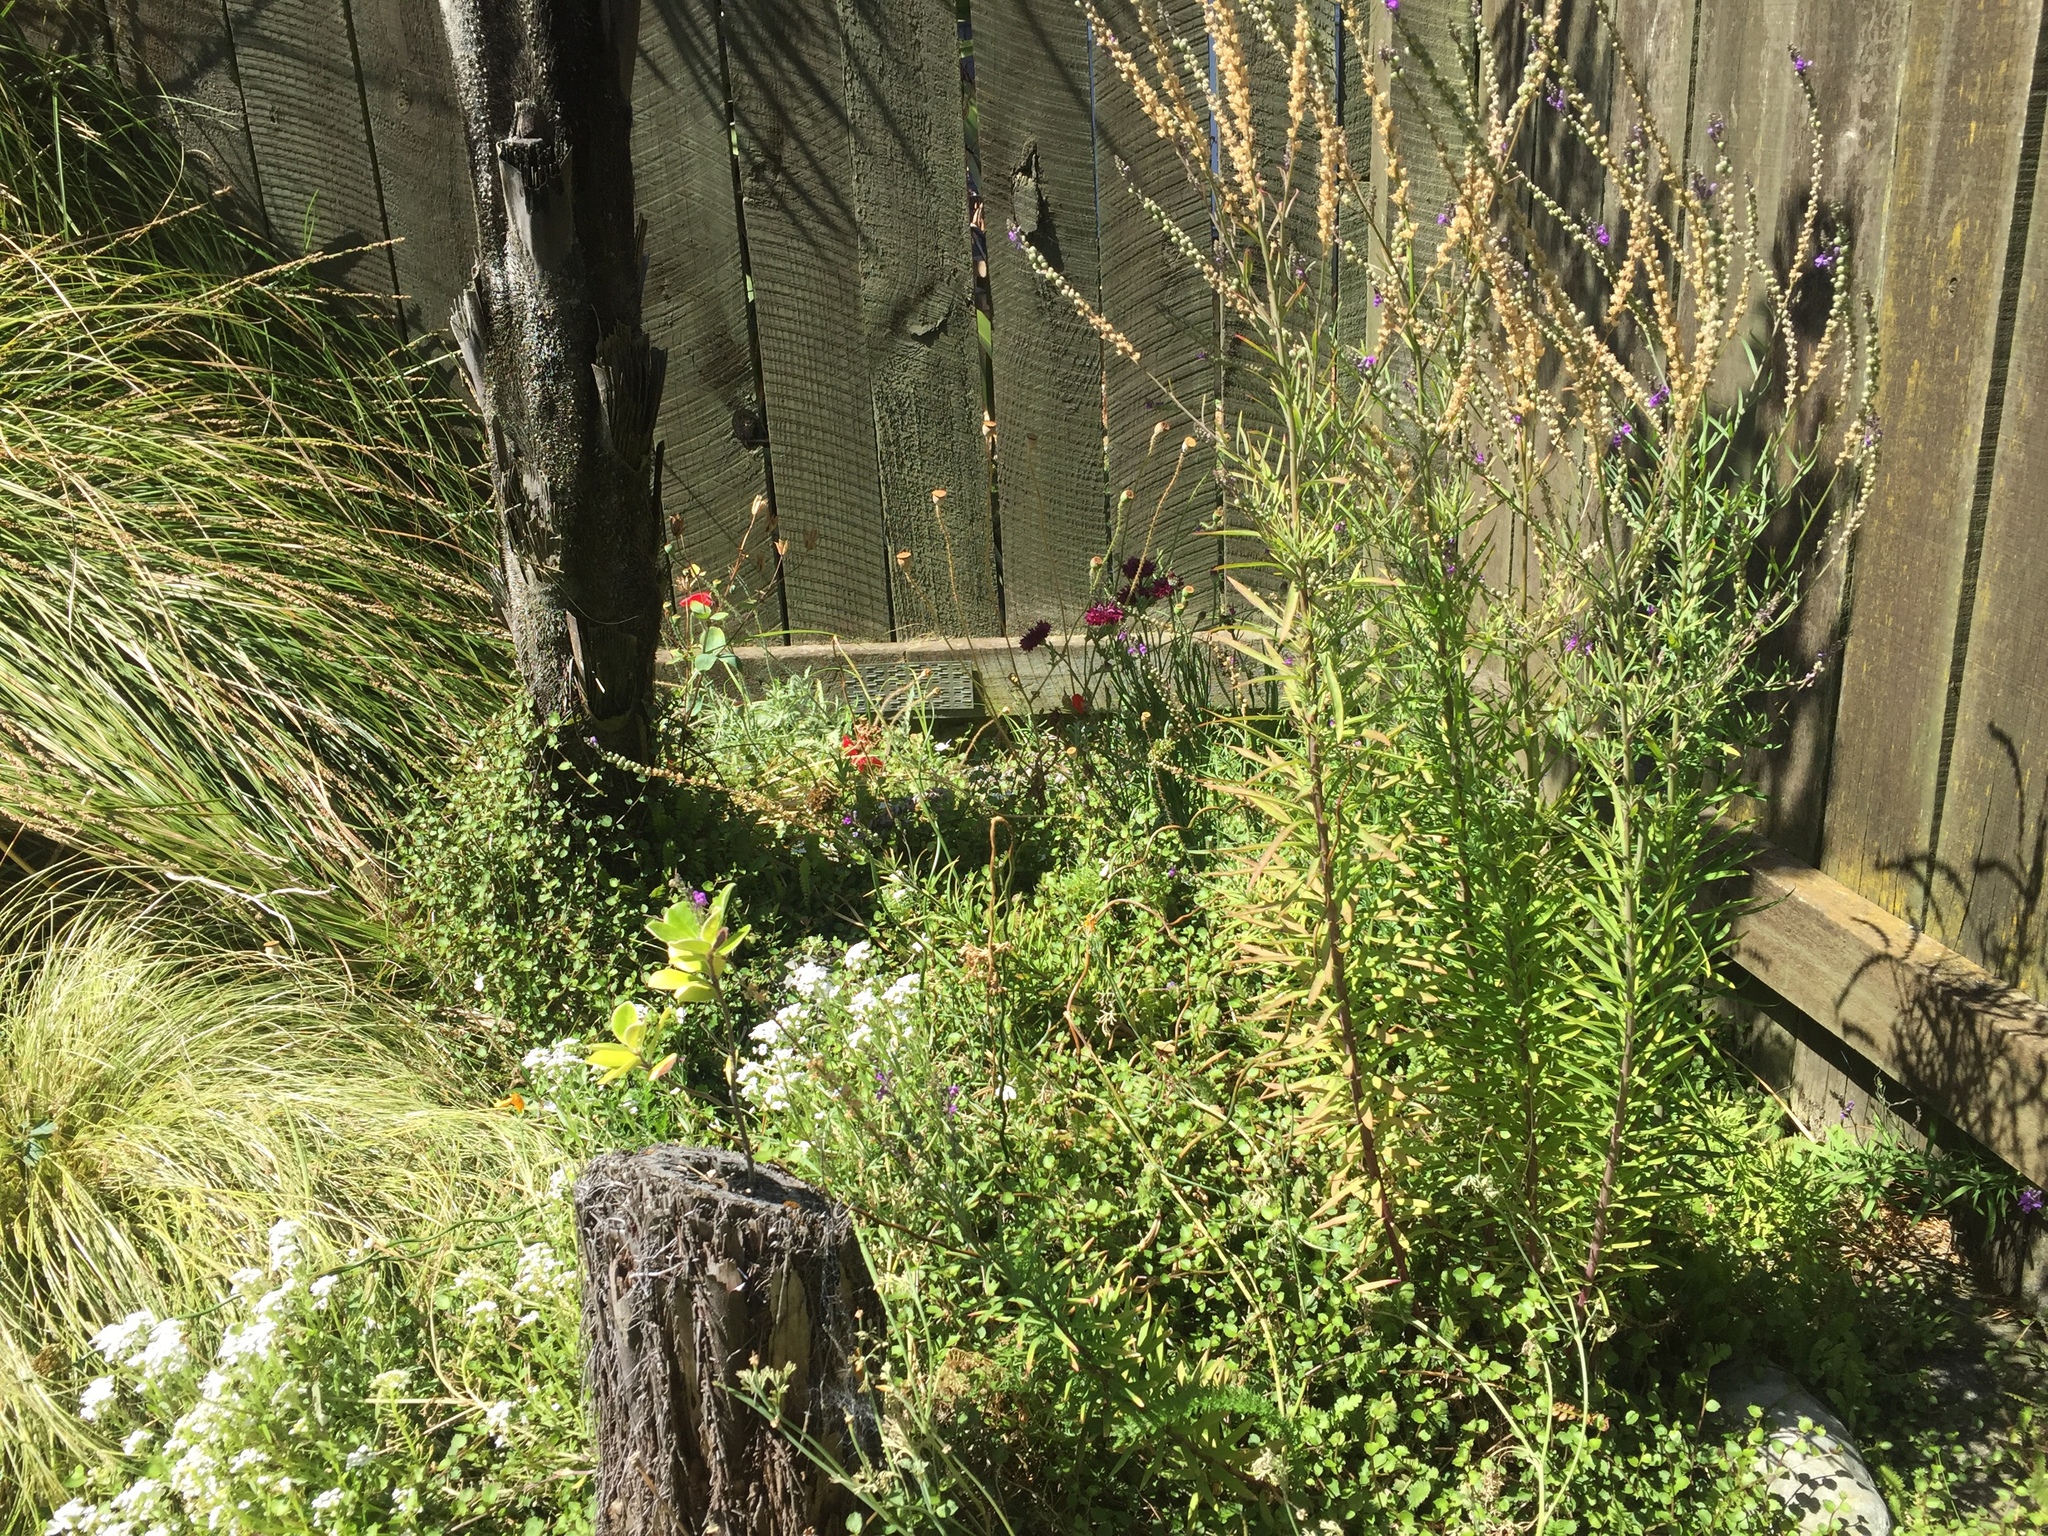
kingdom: Plantae
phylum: Tracheophyta
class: Magnoliopsida
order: Lamiales
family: Plantaginaceae
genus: Linaria
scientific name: Linaria purpurea
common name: Purple toadflax
